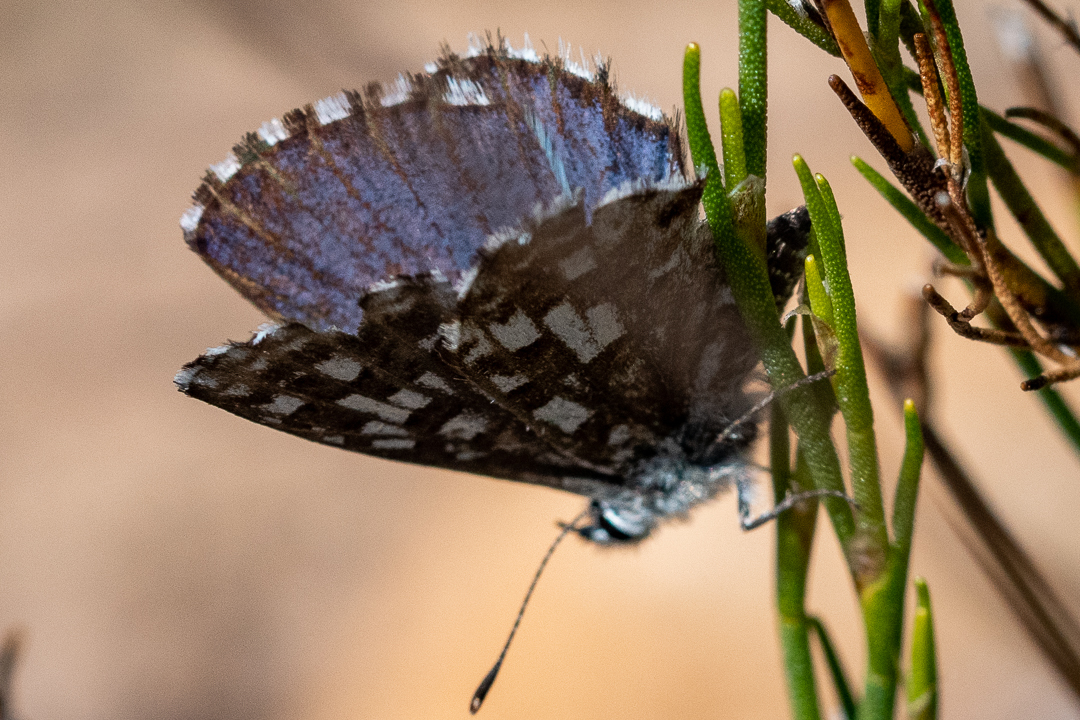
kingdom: Animalia
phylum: Arthropoda
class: Insecta
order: Lepidoptera
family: Lycaenidae
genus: Tarucus
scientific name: Tarucus thespis
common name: Vivid dotted blue
